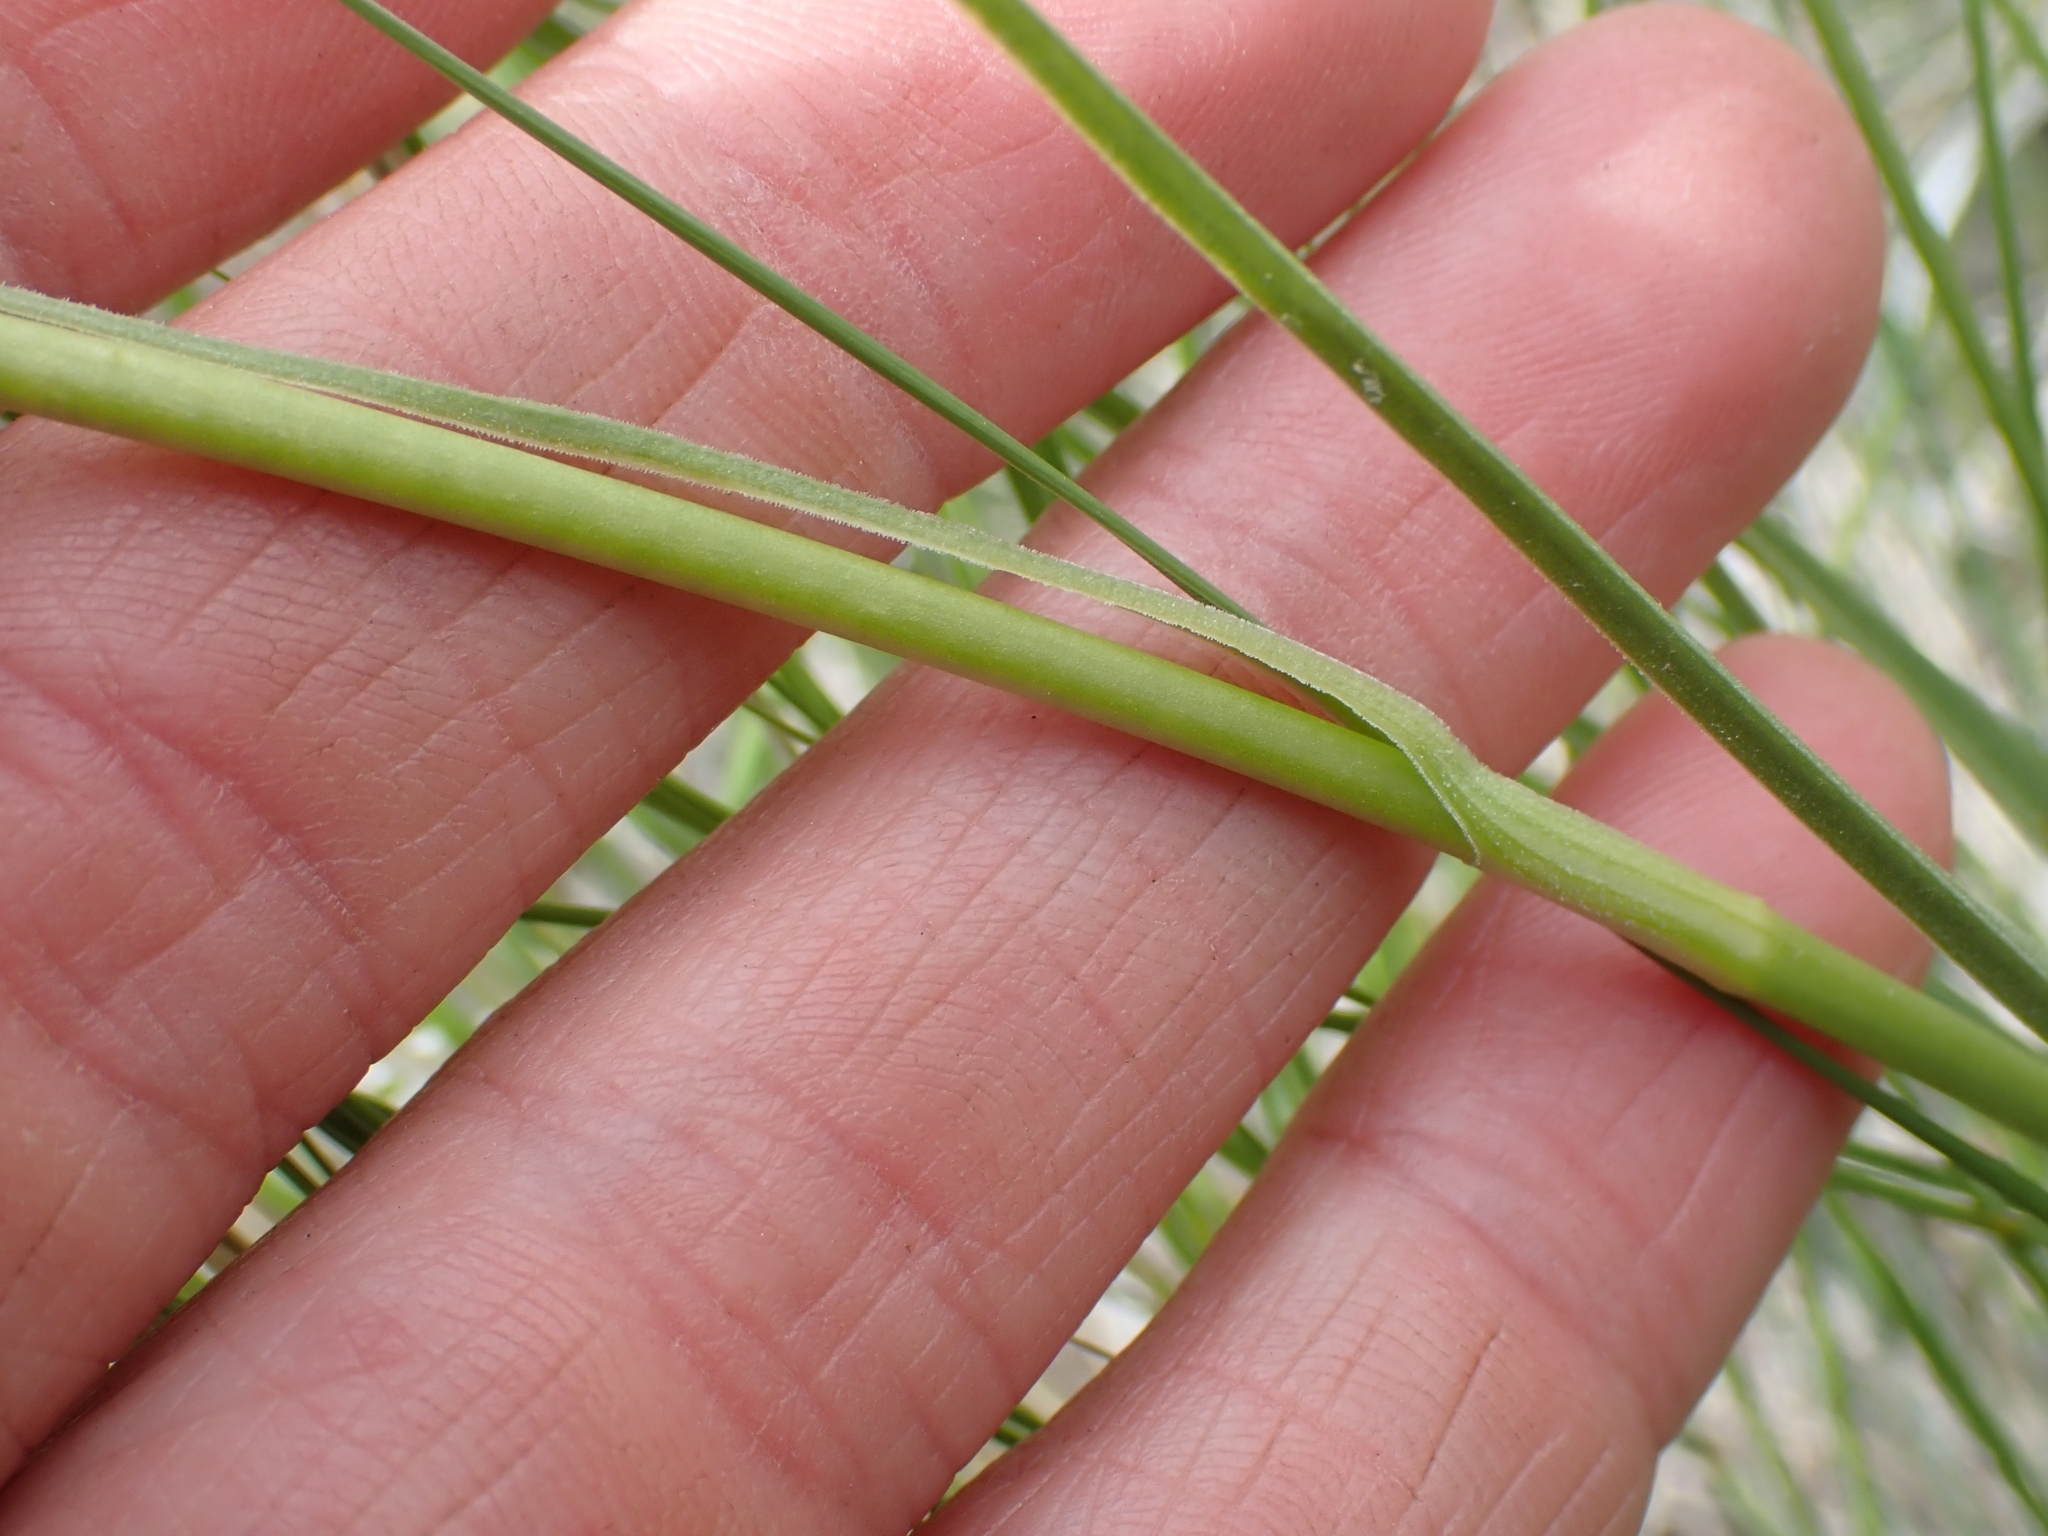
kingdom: Plantae
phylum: Tracheophyta
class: Liliopsida
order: Liliales
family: Melanthiaceae
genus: Toxicoscordion
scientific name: Toxicoscordion venenosum
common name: Meadow death camas
